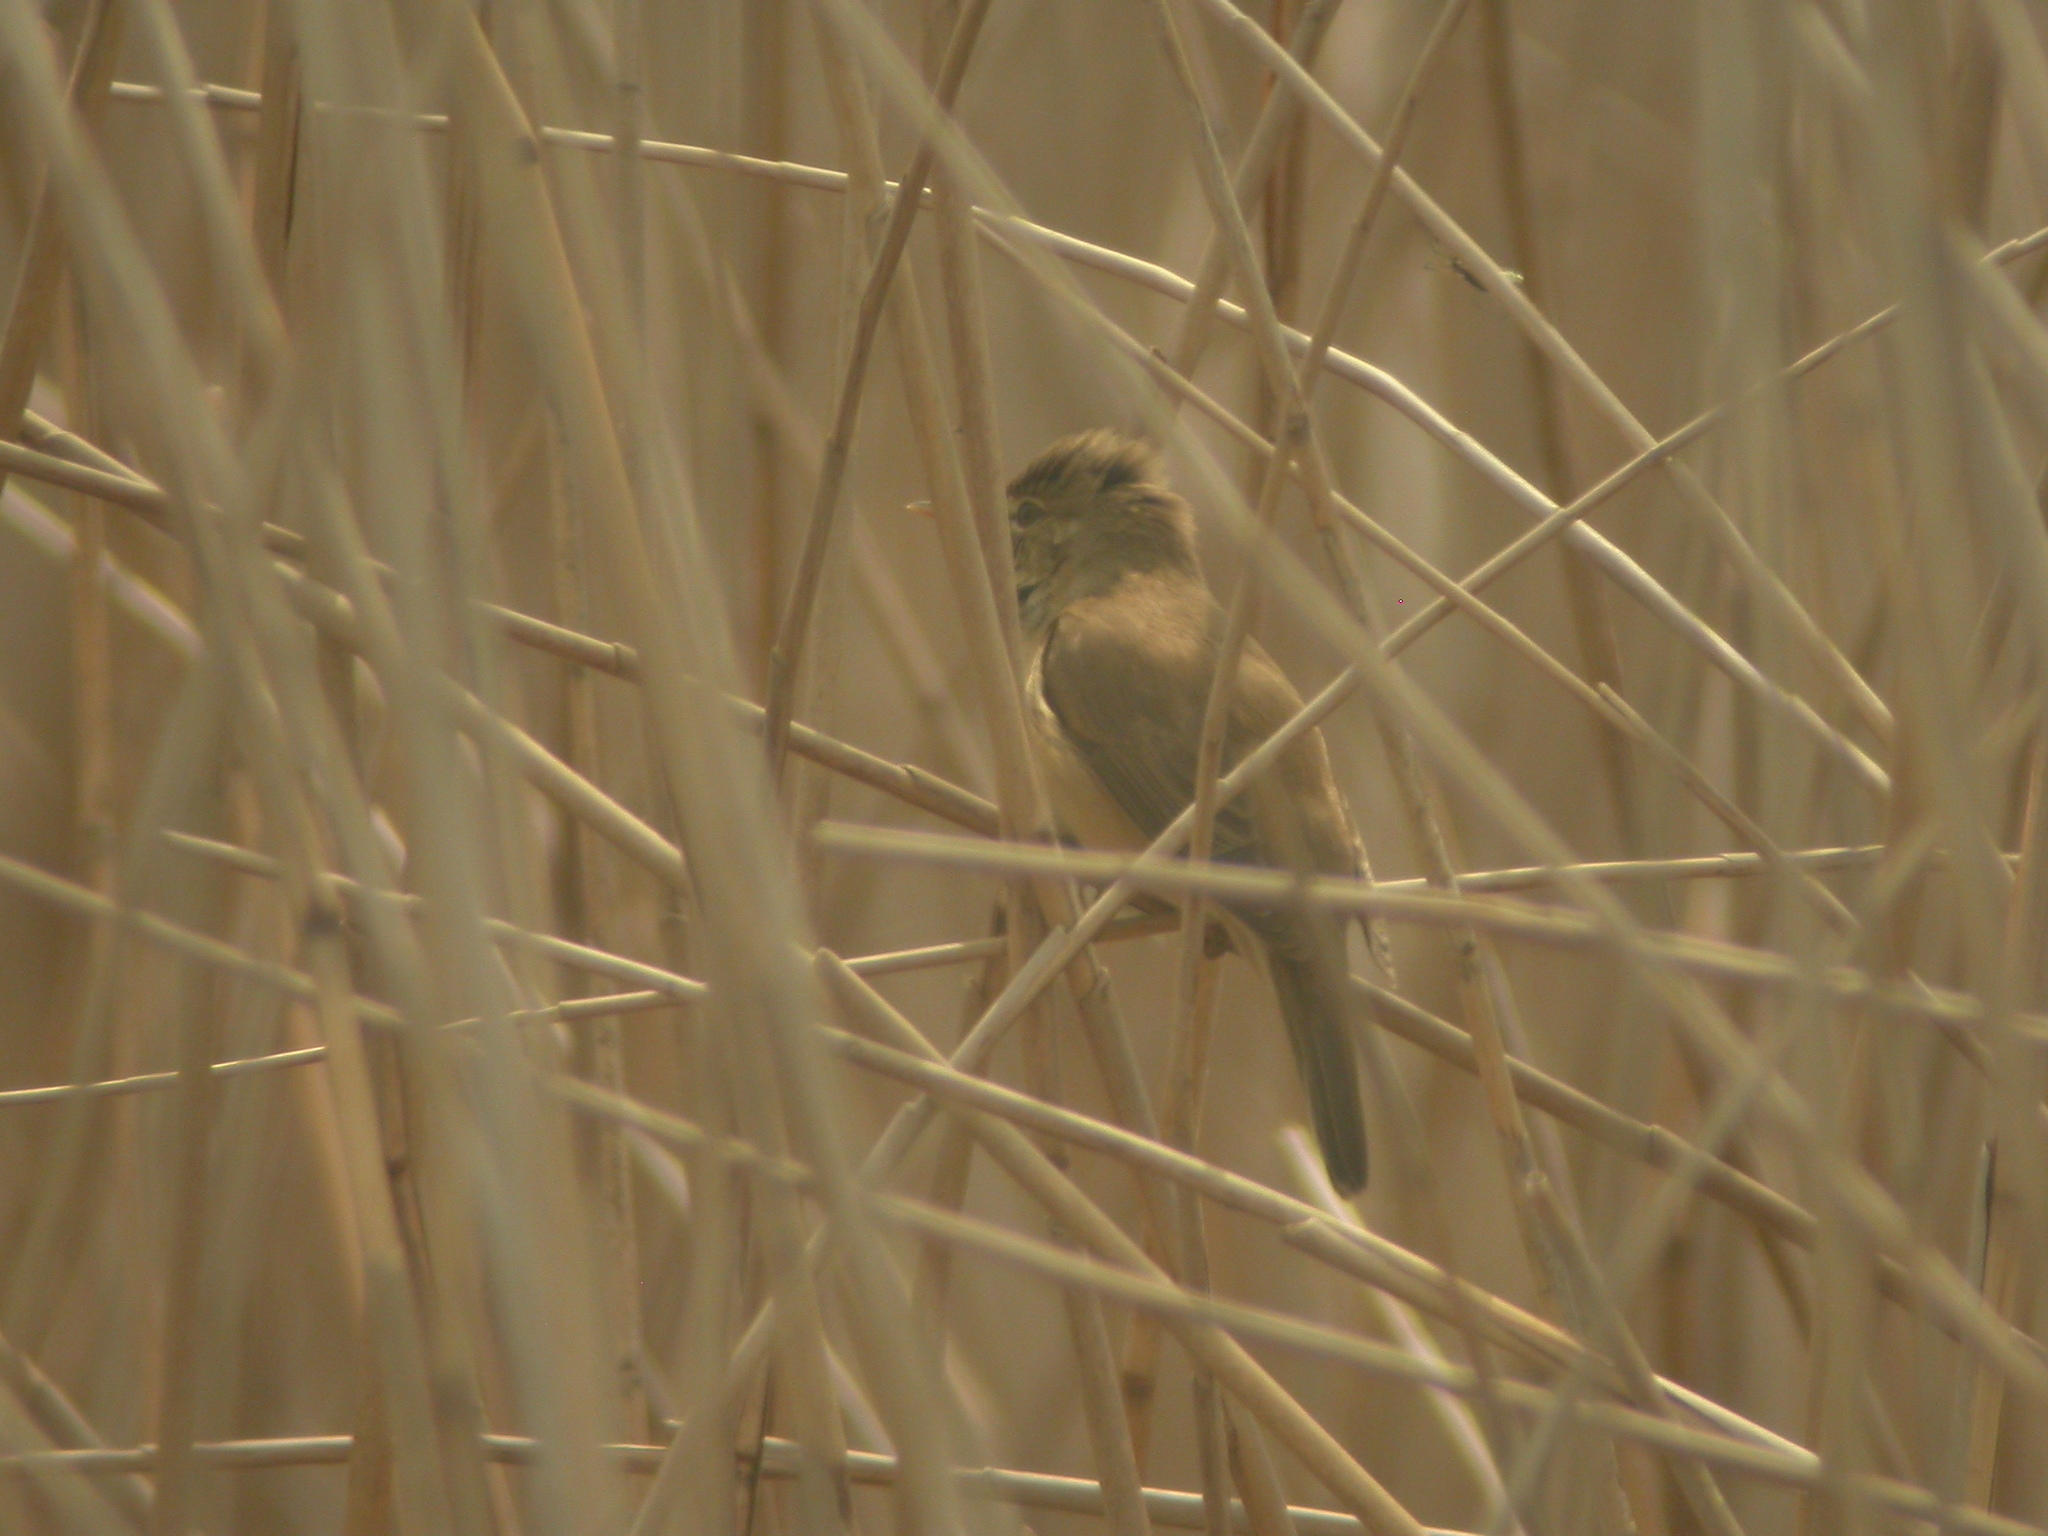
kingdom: Animalia
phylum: Chordata
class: Aves
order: Passeriformes
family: Acrocephalidae
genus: Acrocephalus
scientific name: Acrocephalus scirpaceus
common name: Eurasian reed warbler
